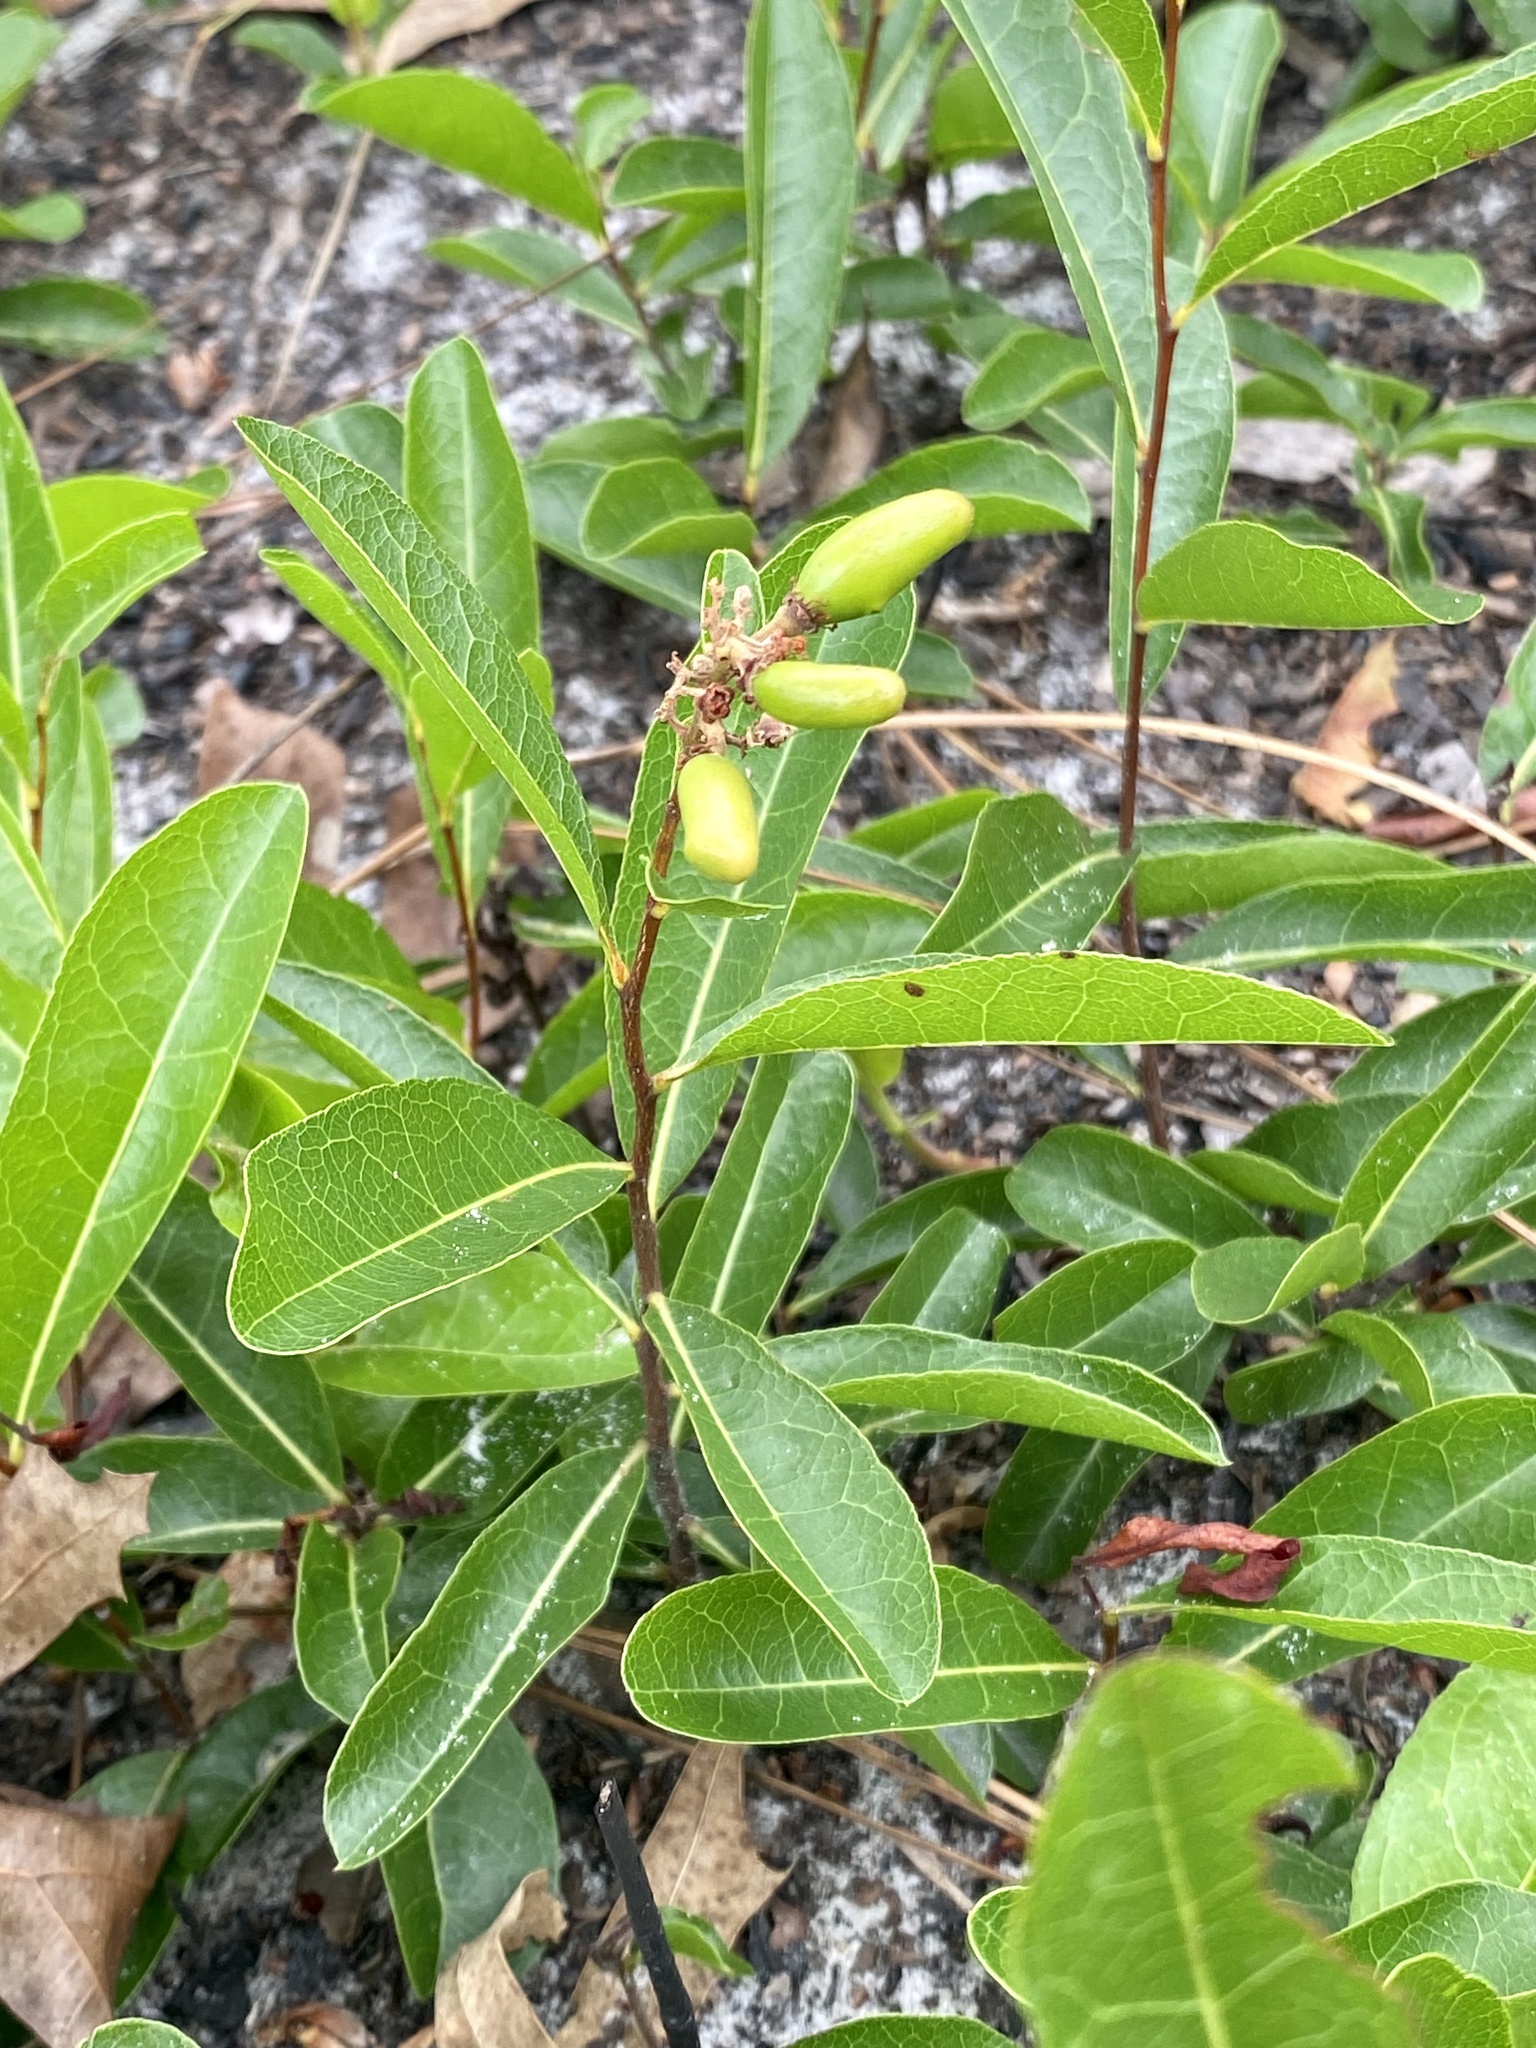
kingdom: Plantae
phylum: Tracheophyta
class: Magnoliopsida
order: Malpighiales
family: Chrysobalanaceae
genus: Geobalanus
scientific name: Geobalanus oblongifolius
